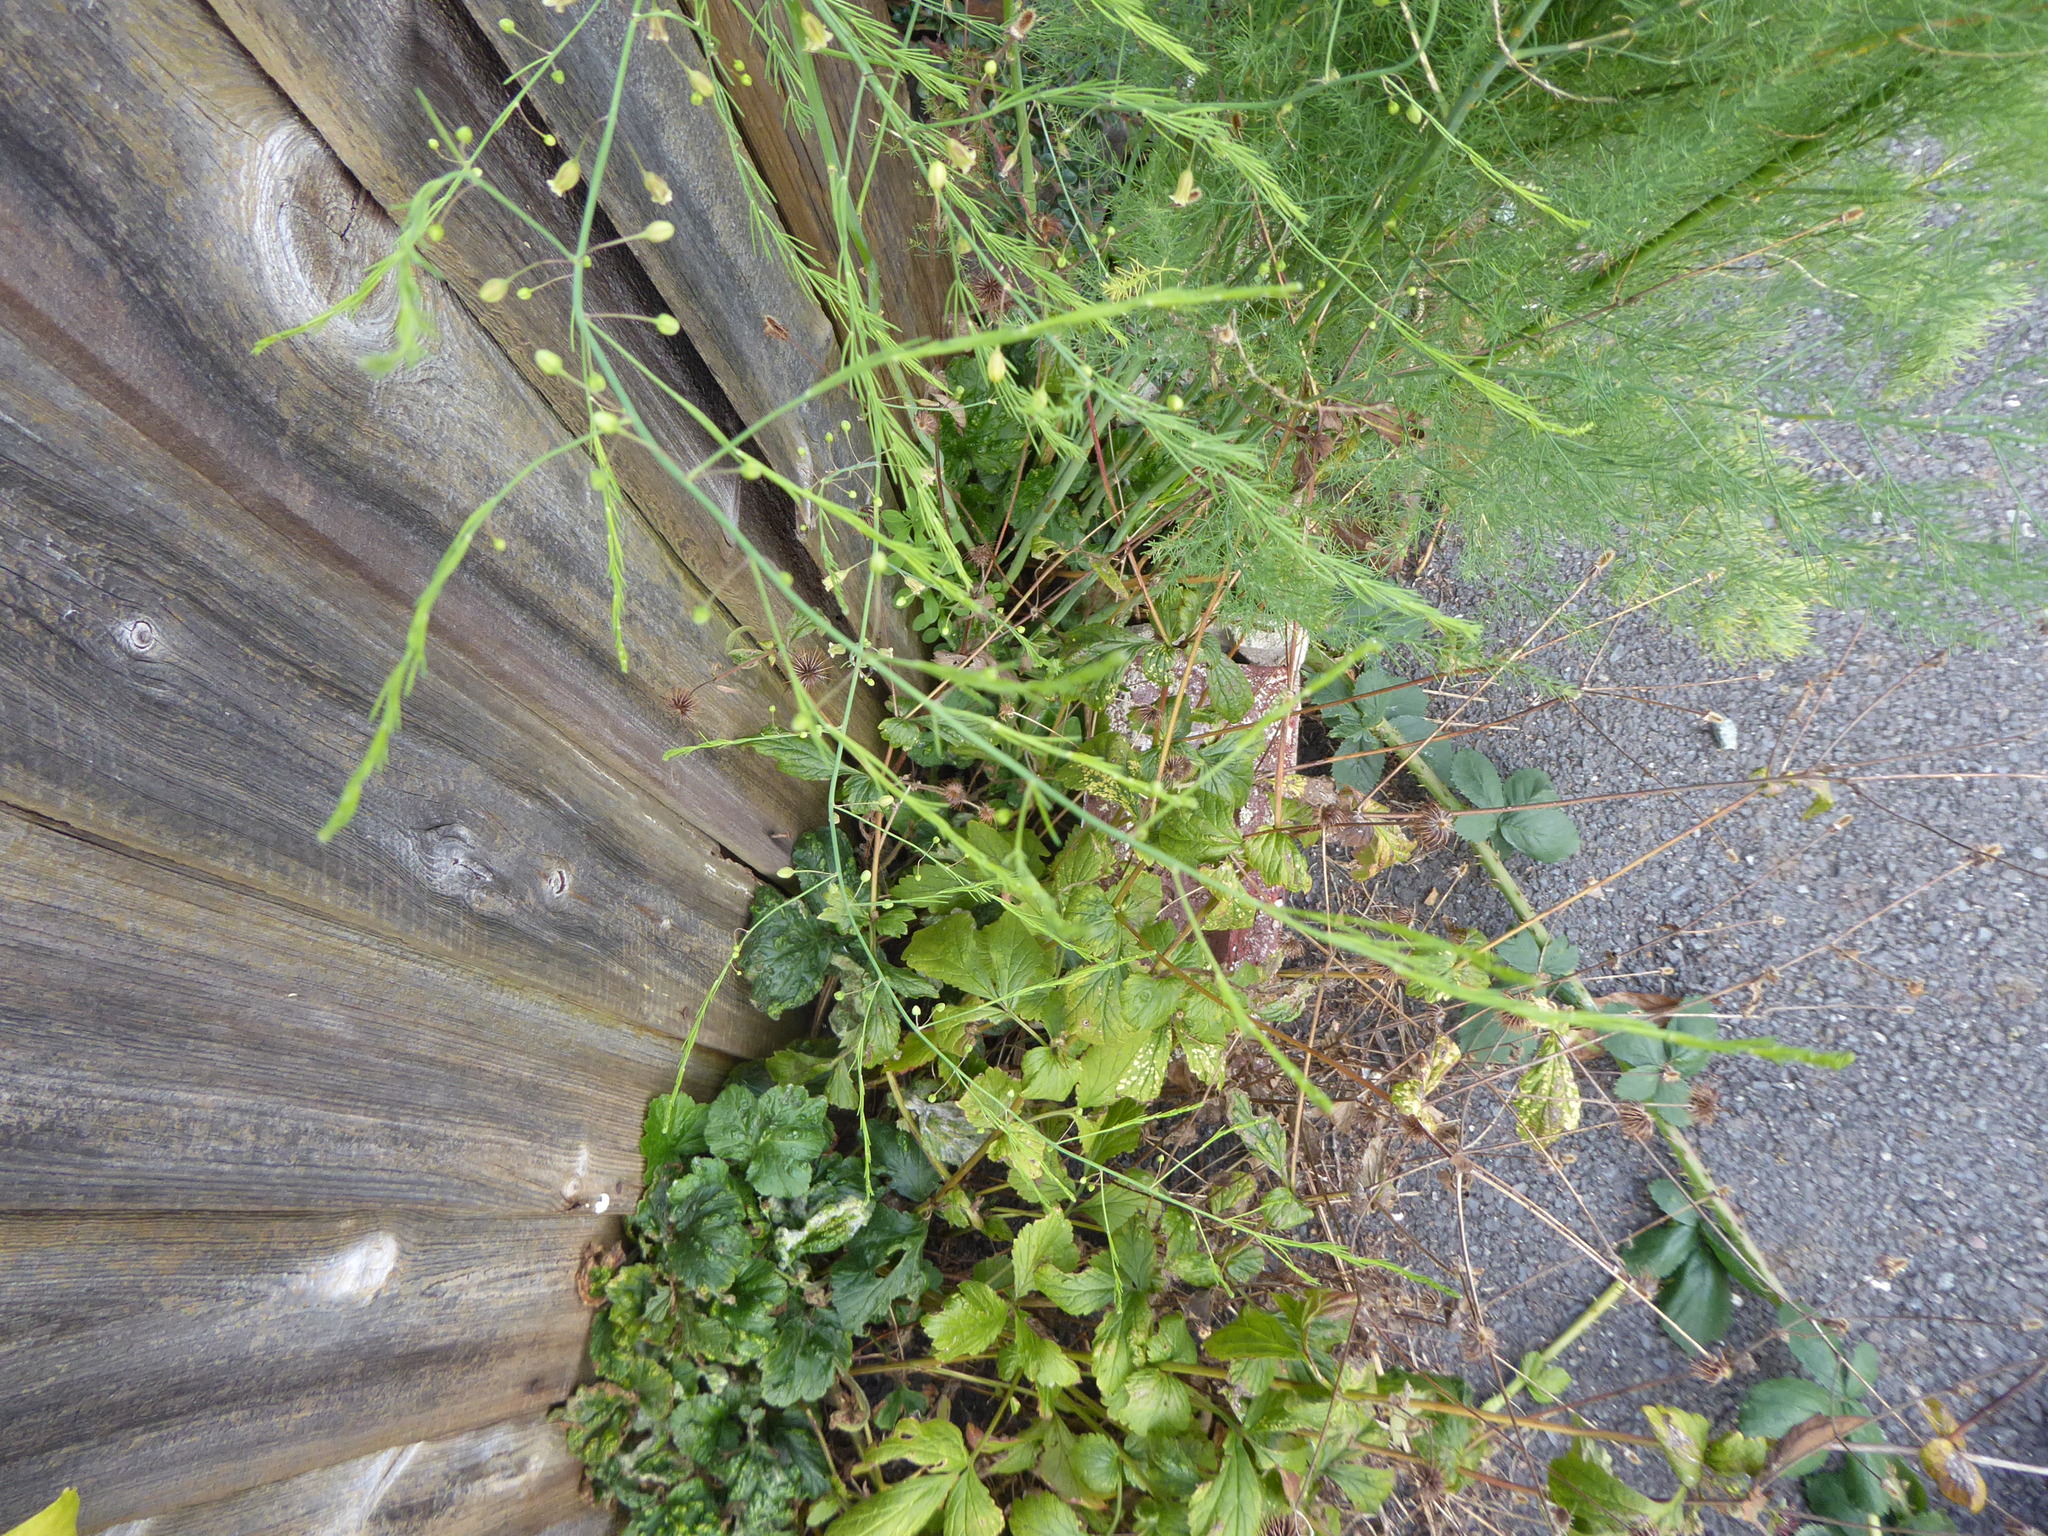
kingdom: Plantae
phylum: Tracheophyta
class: Liliopsida
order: Asparagales
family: Asparagaceae
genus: Asparagus
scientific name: Asparagus officinalis
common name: Garden asparagus
